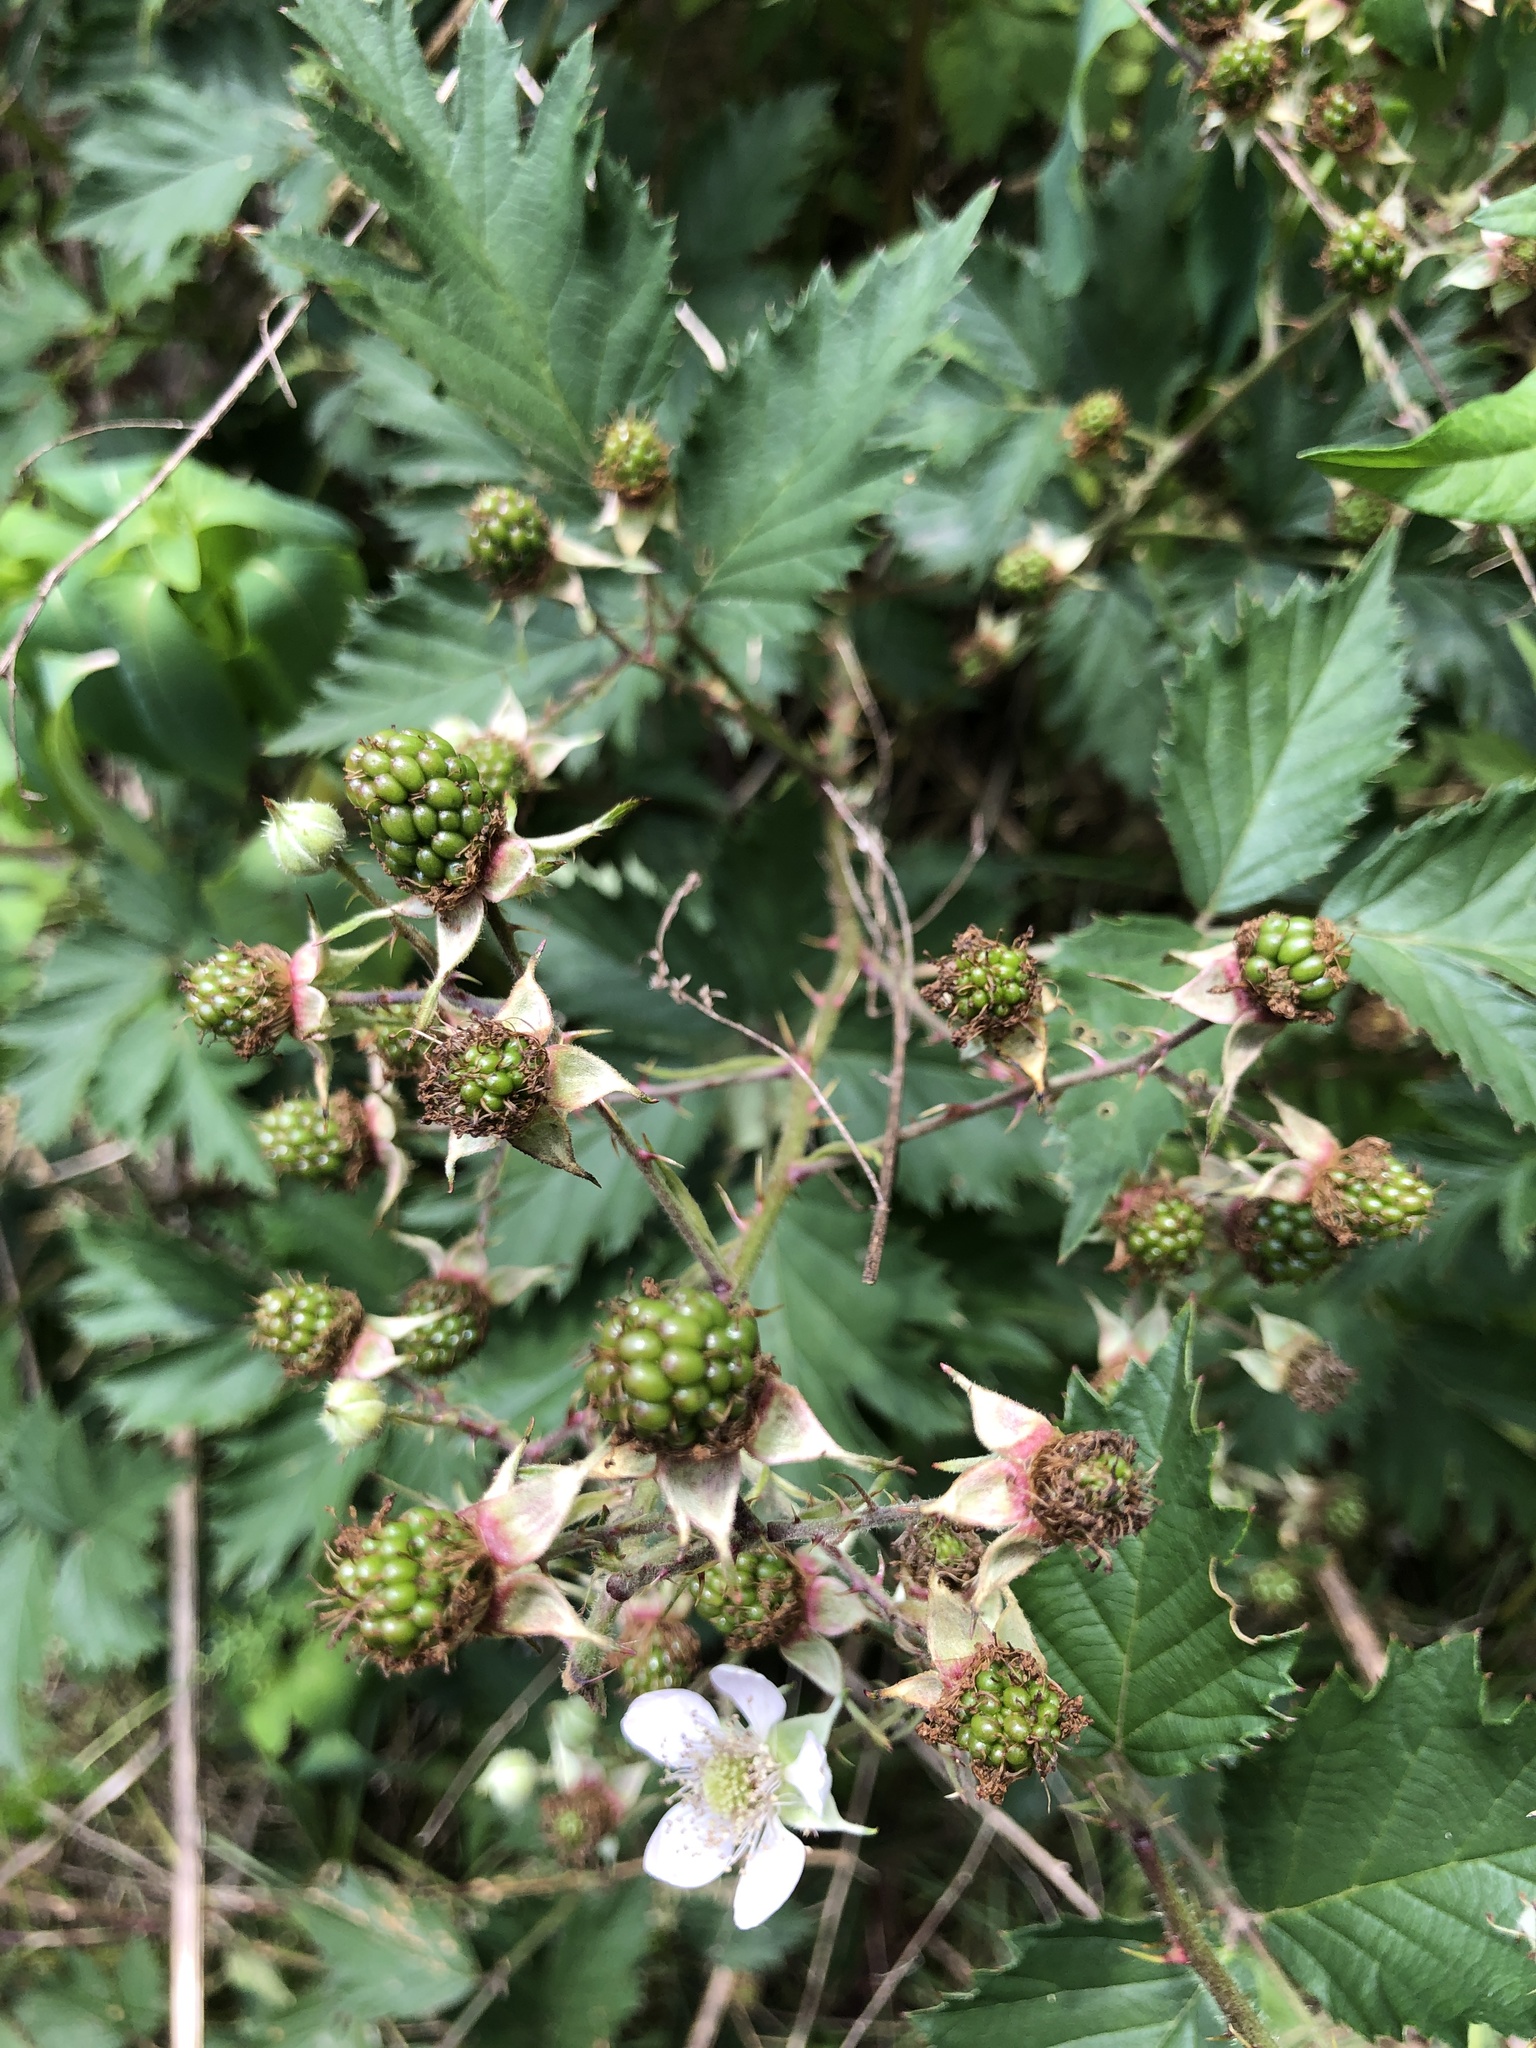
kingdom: Plantae
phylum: Tracheophyta
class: Magnoliopsida
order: Rosales
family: Rosaceae
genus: Rubus
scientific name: Rubus laciniatus
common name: Evergreen blackberry
